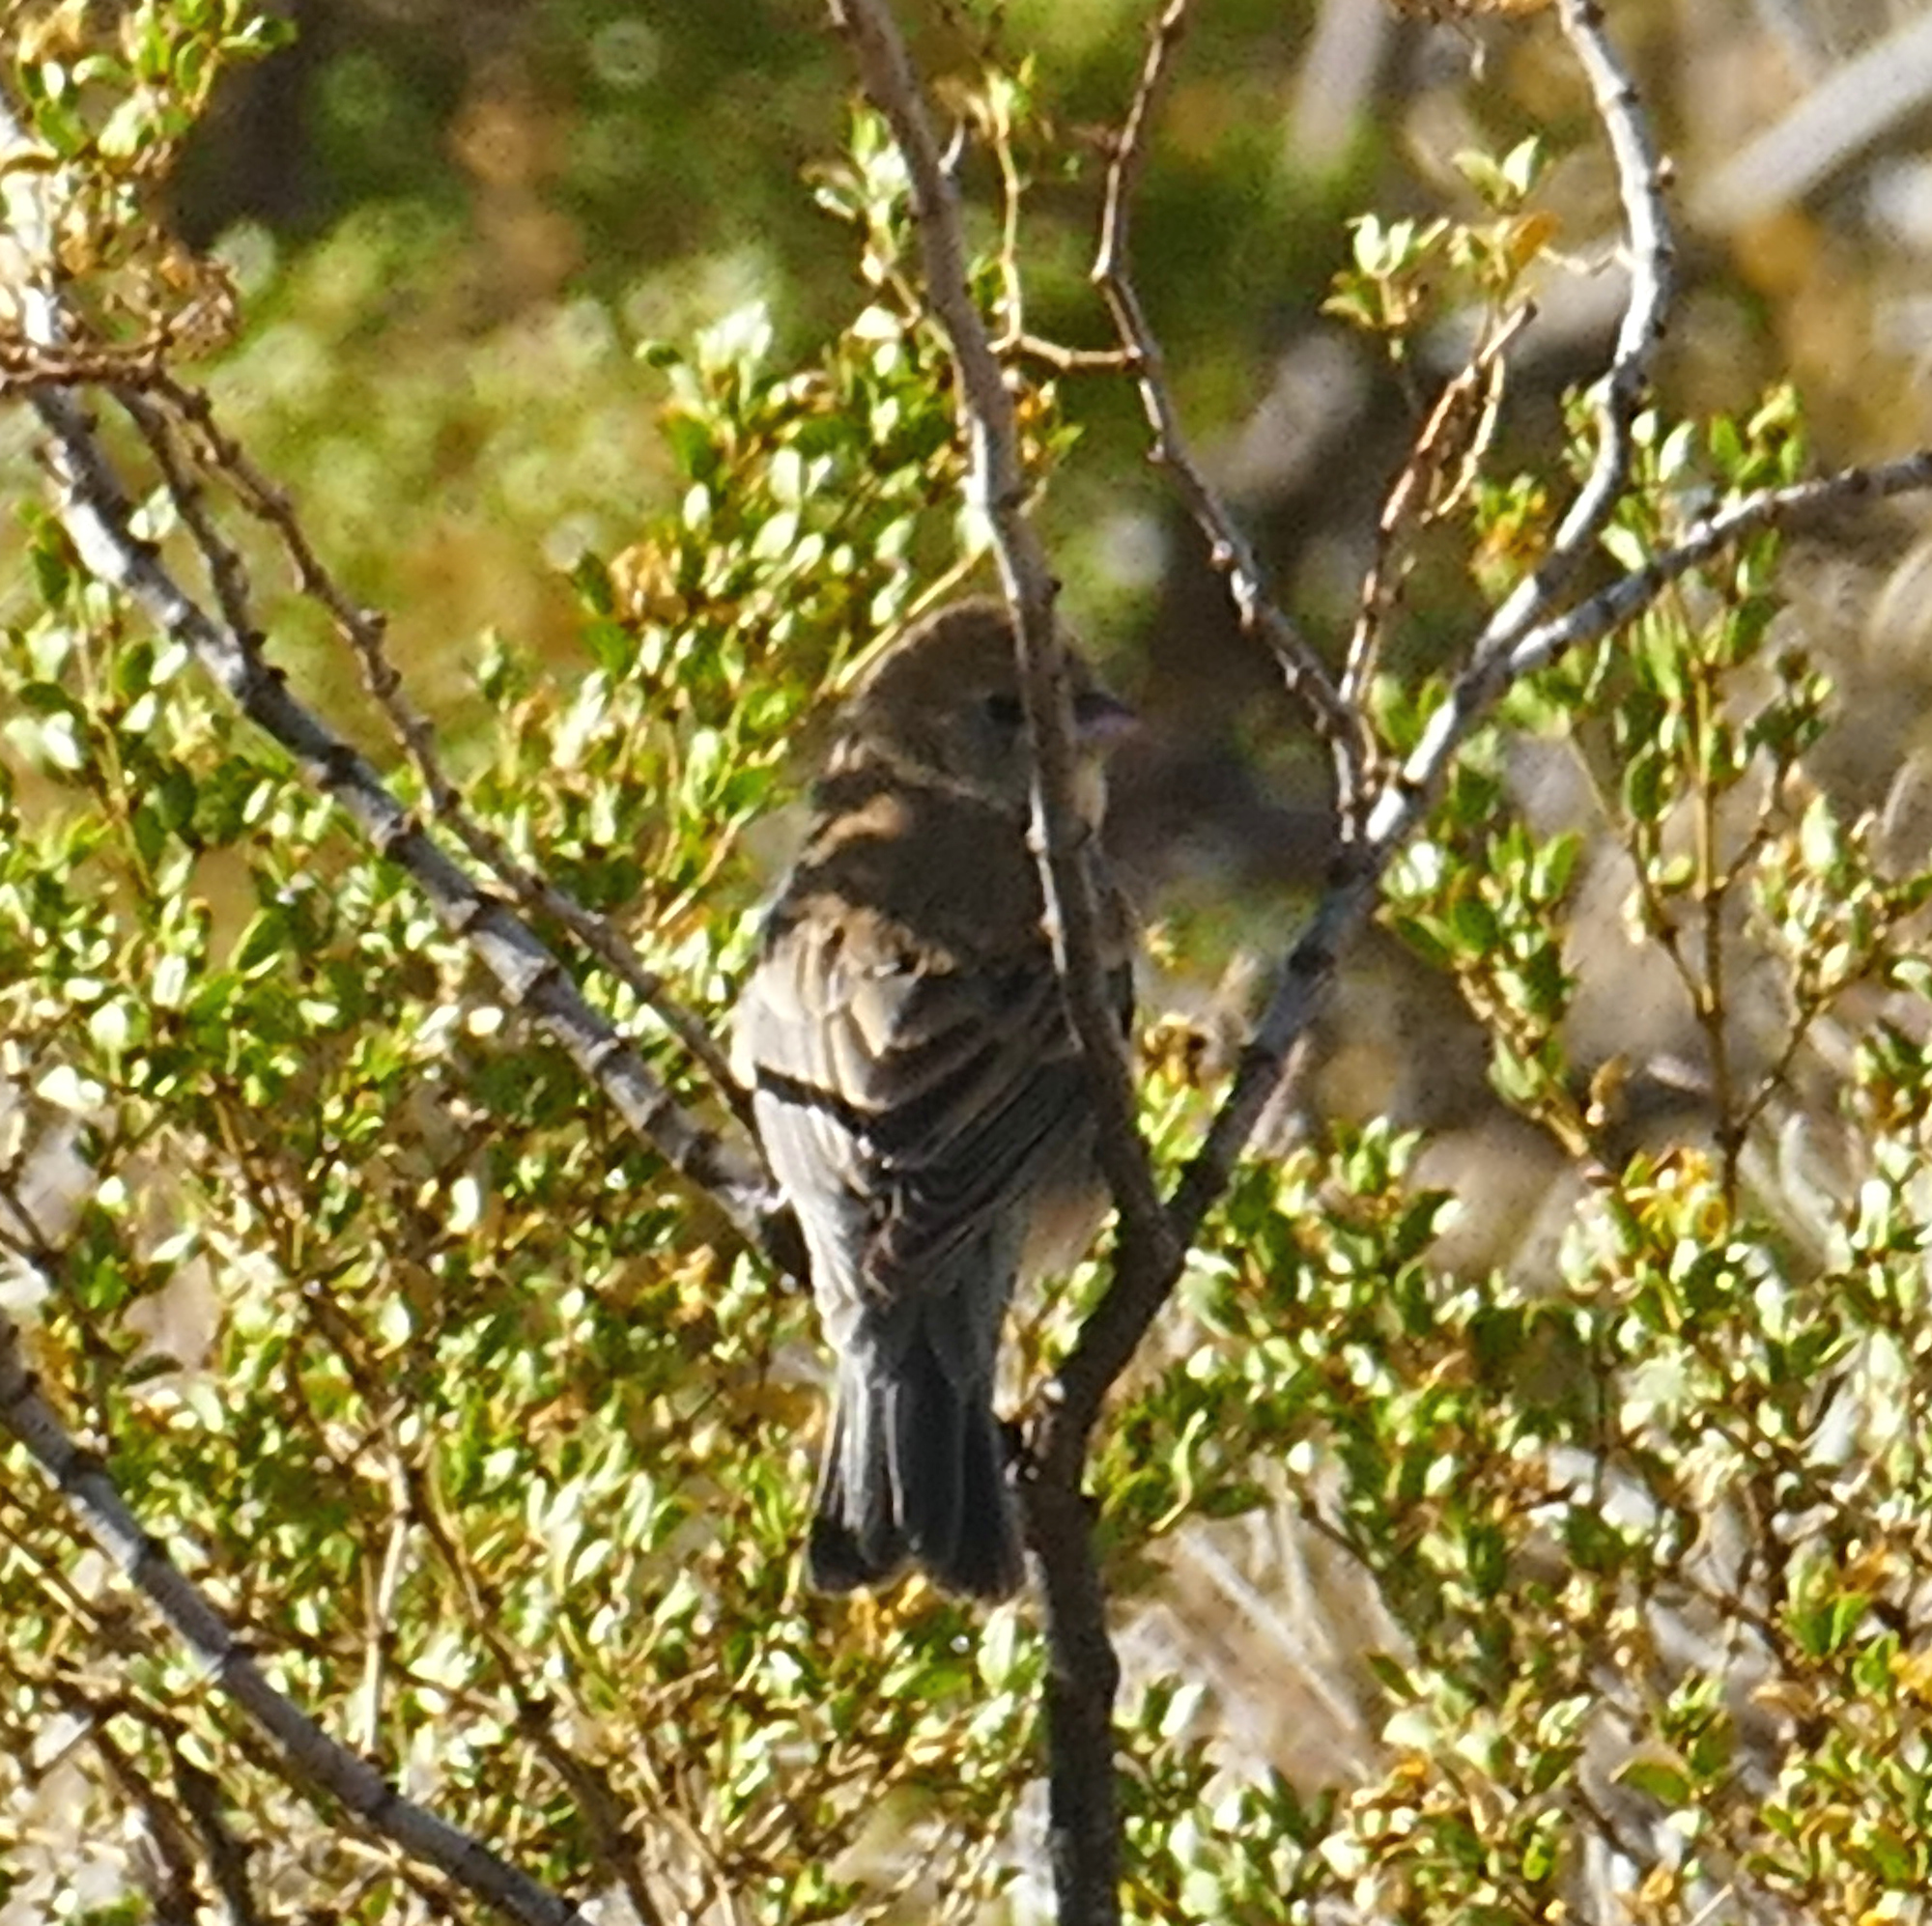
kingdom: Animalia
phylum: Chordata
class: Aves
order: Passeriformes
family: Cardinalidae
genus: Passerina
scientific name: Passerina amoena
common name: Lazuli bunting
